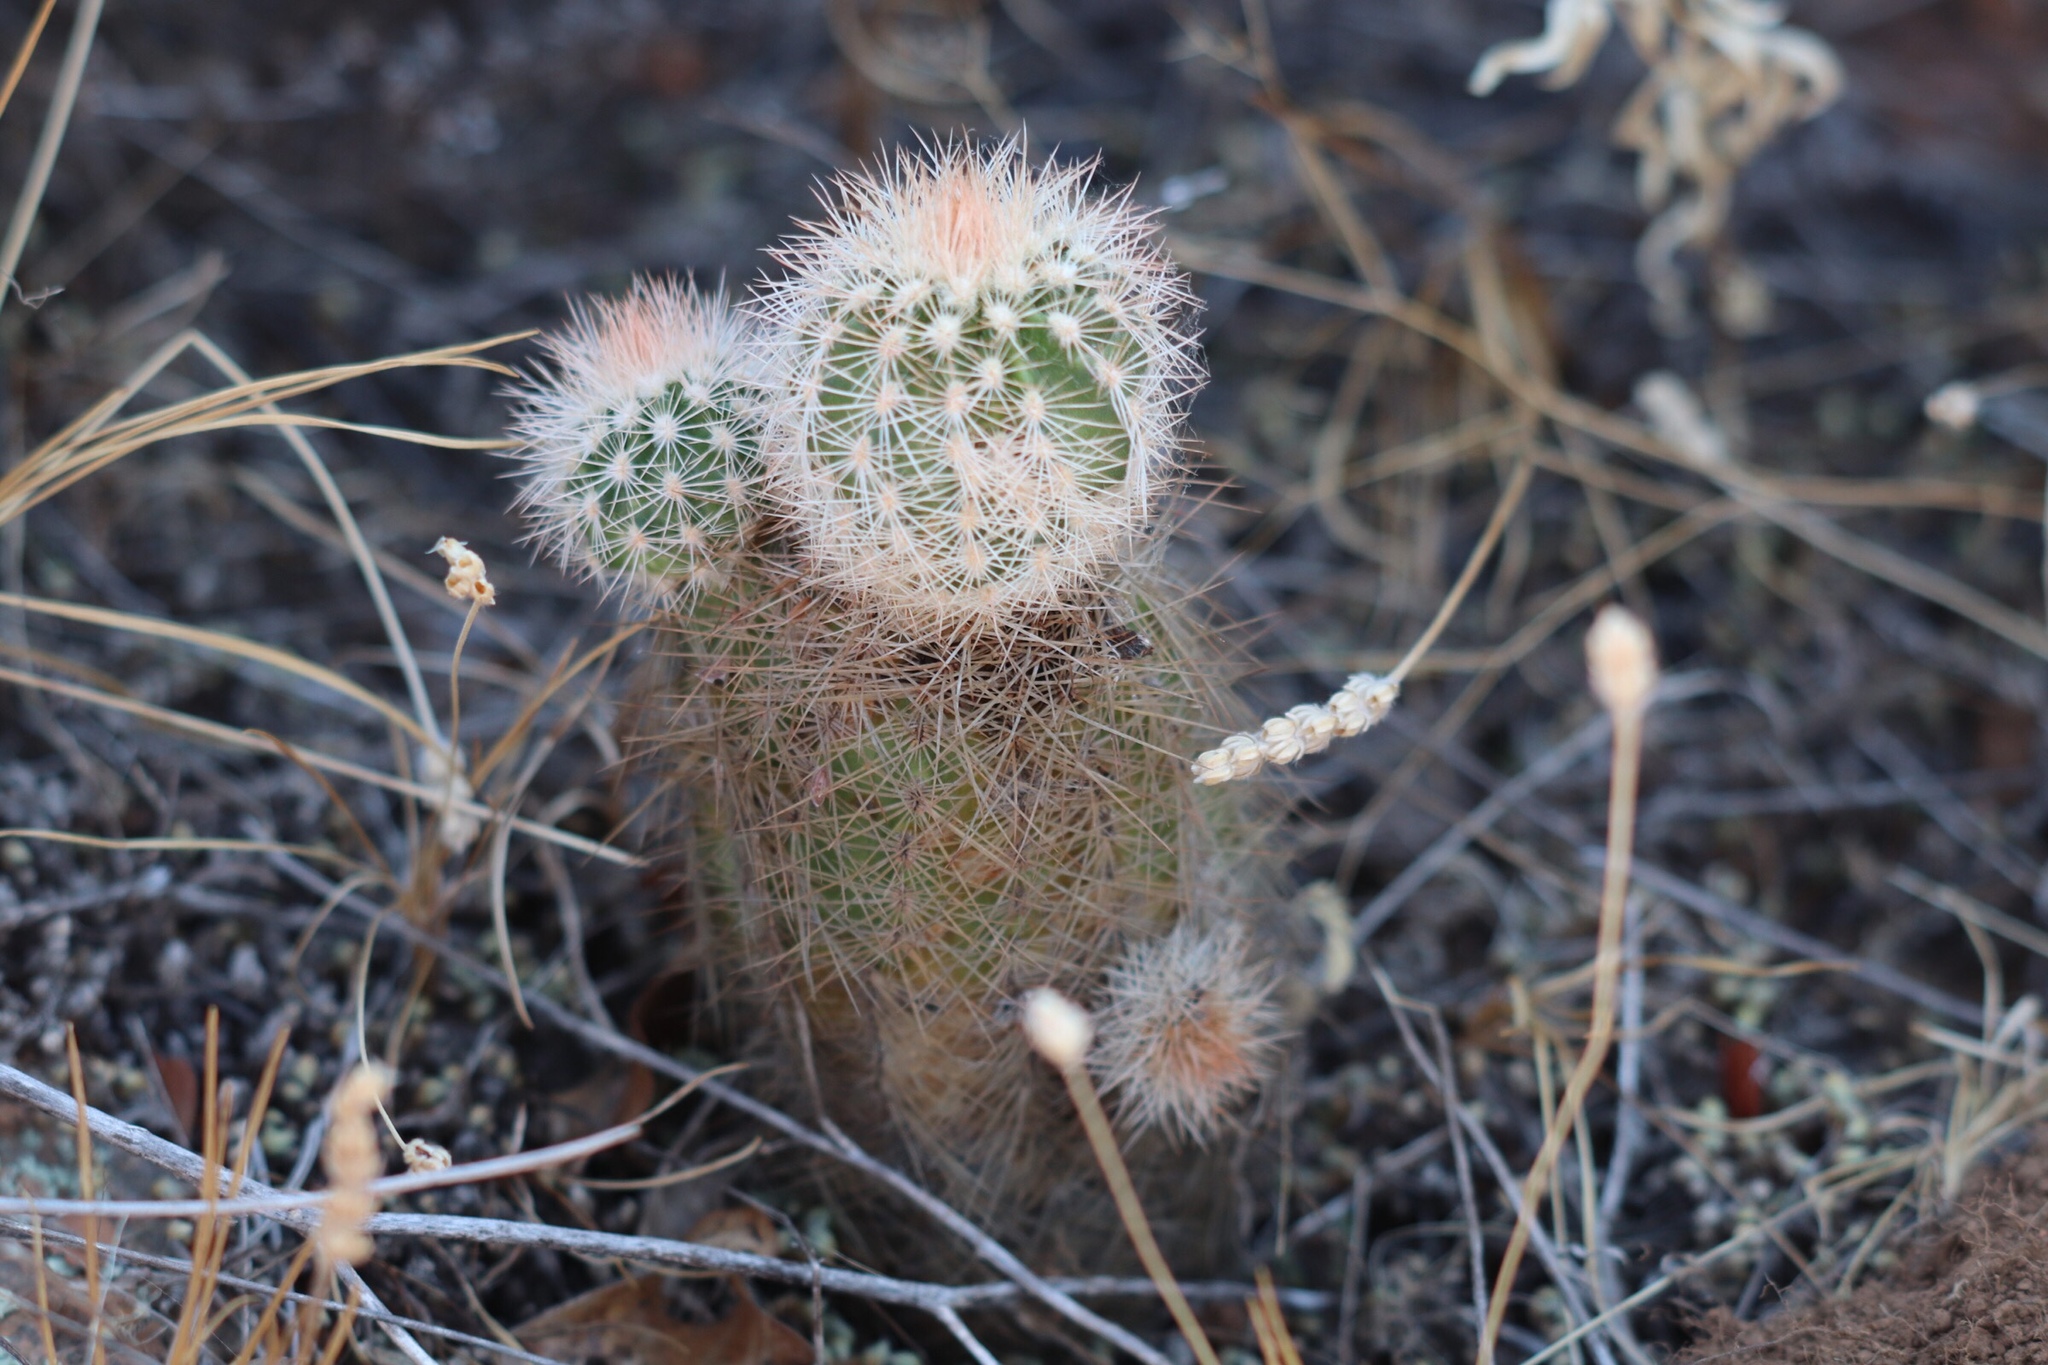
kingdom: Plantae
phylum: Tracheophyta
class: Magnoliopsida
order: Caryophyllales
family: Cactaceae
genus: Echinocereus
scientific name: Echinocereus reichenbachii
